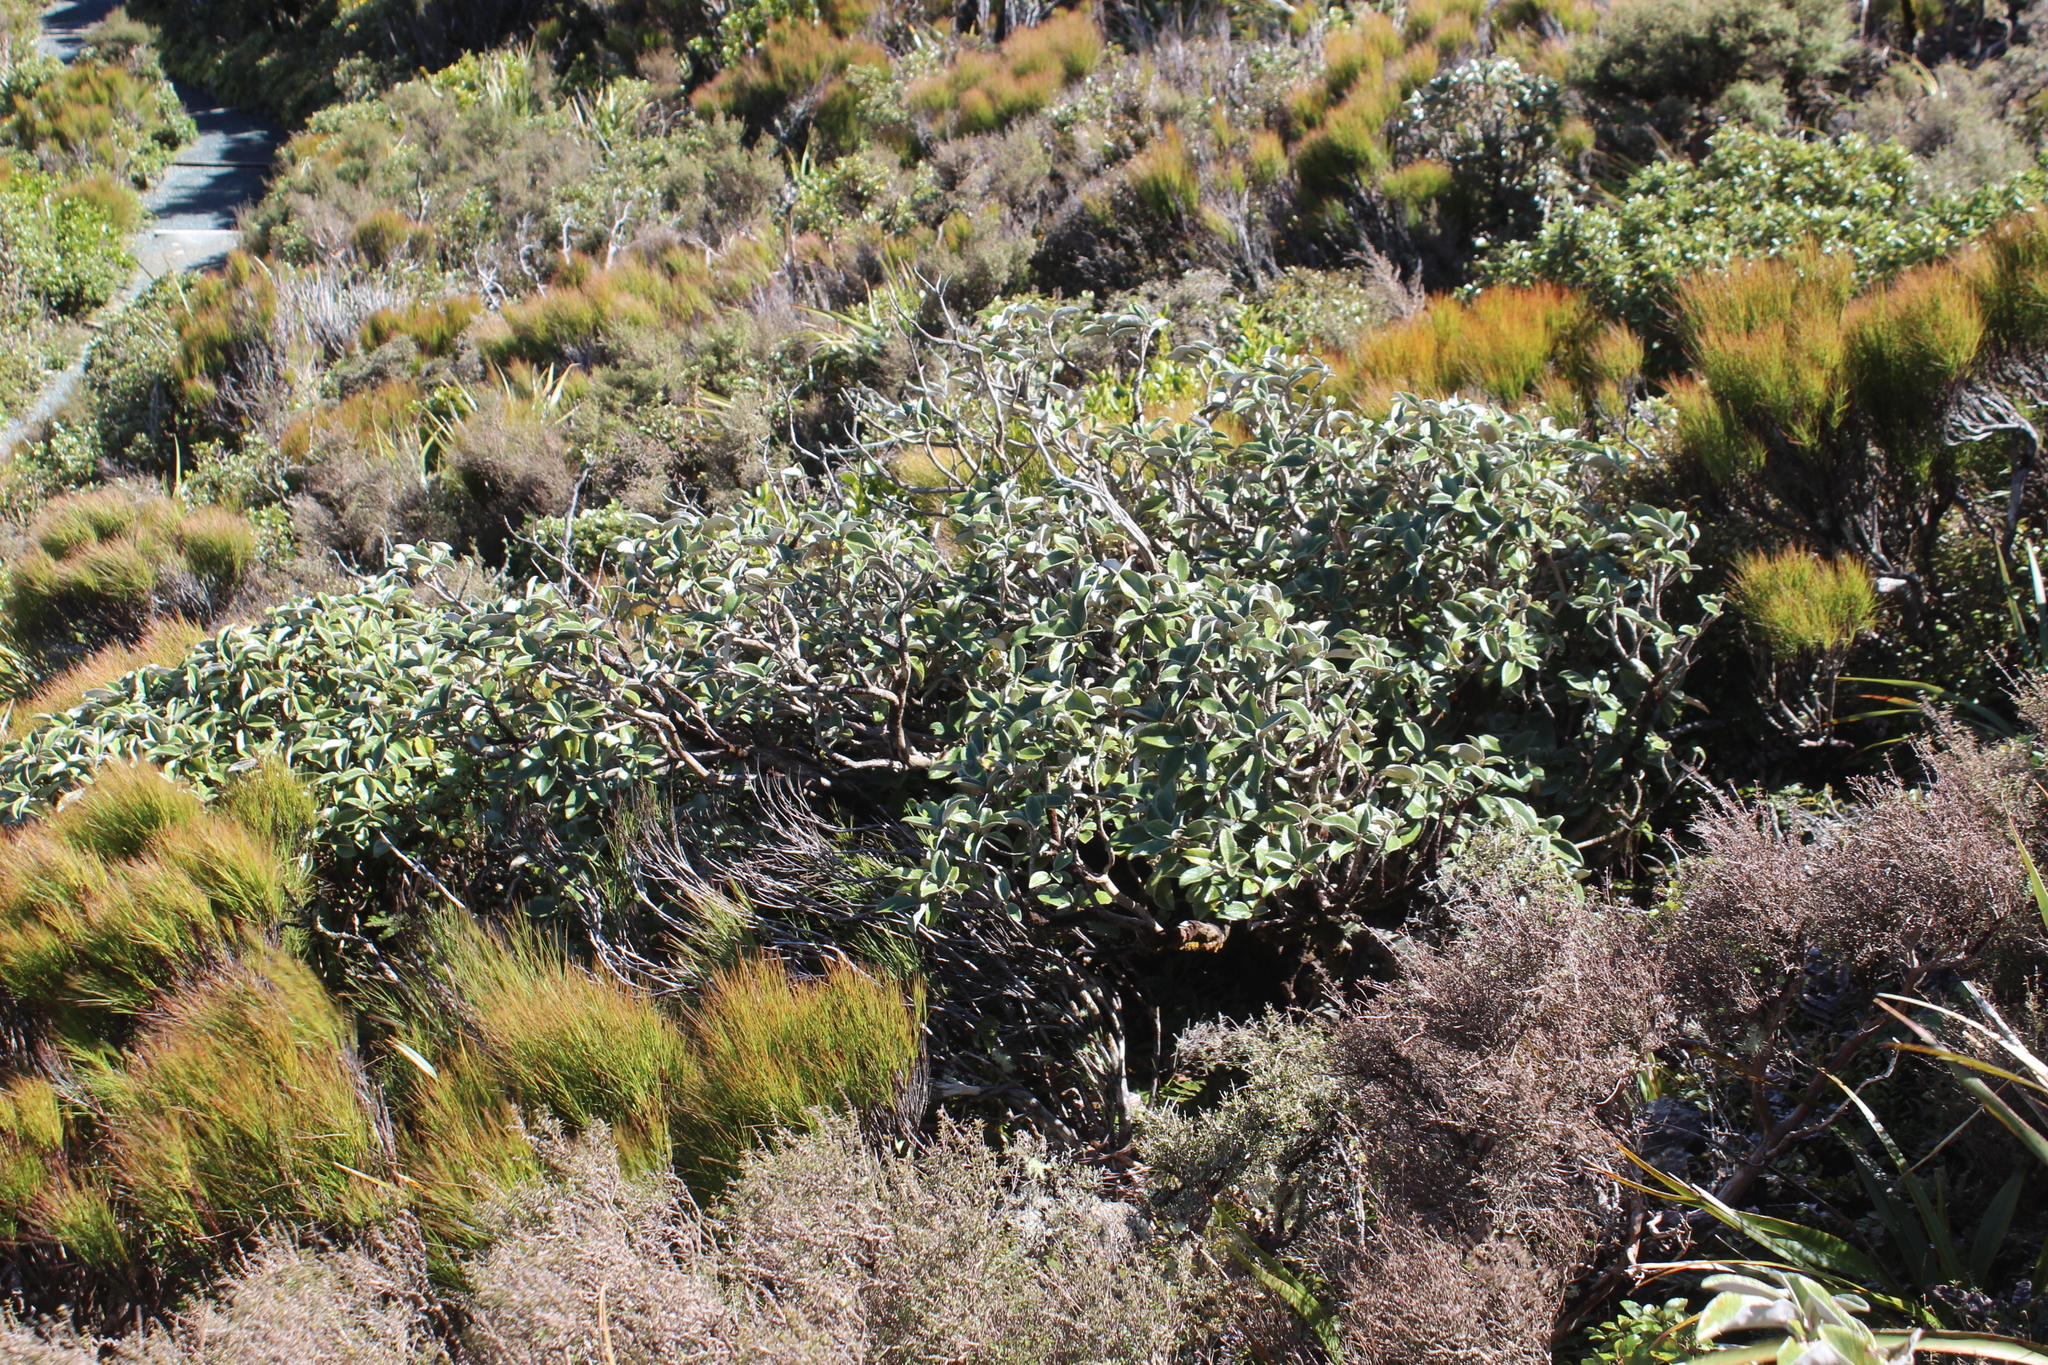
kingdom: Plantae
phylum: Tracheophyta
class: Magnoliopsida
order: Asterales
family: Asteraceae
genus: Brachyglottis
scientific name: Brachyglottis elaeagnifolia
